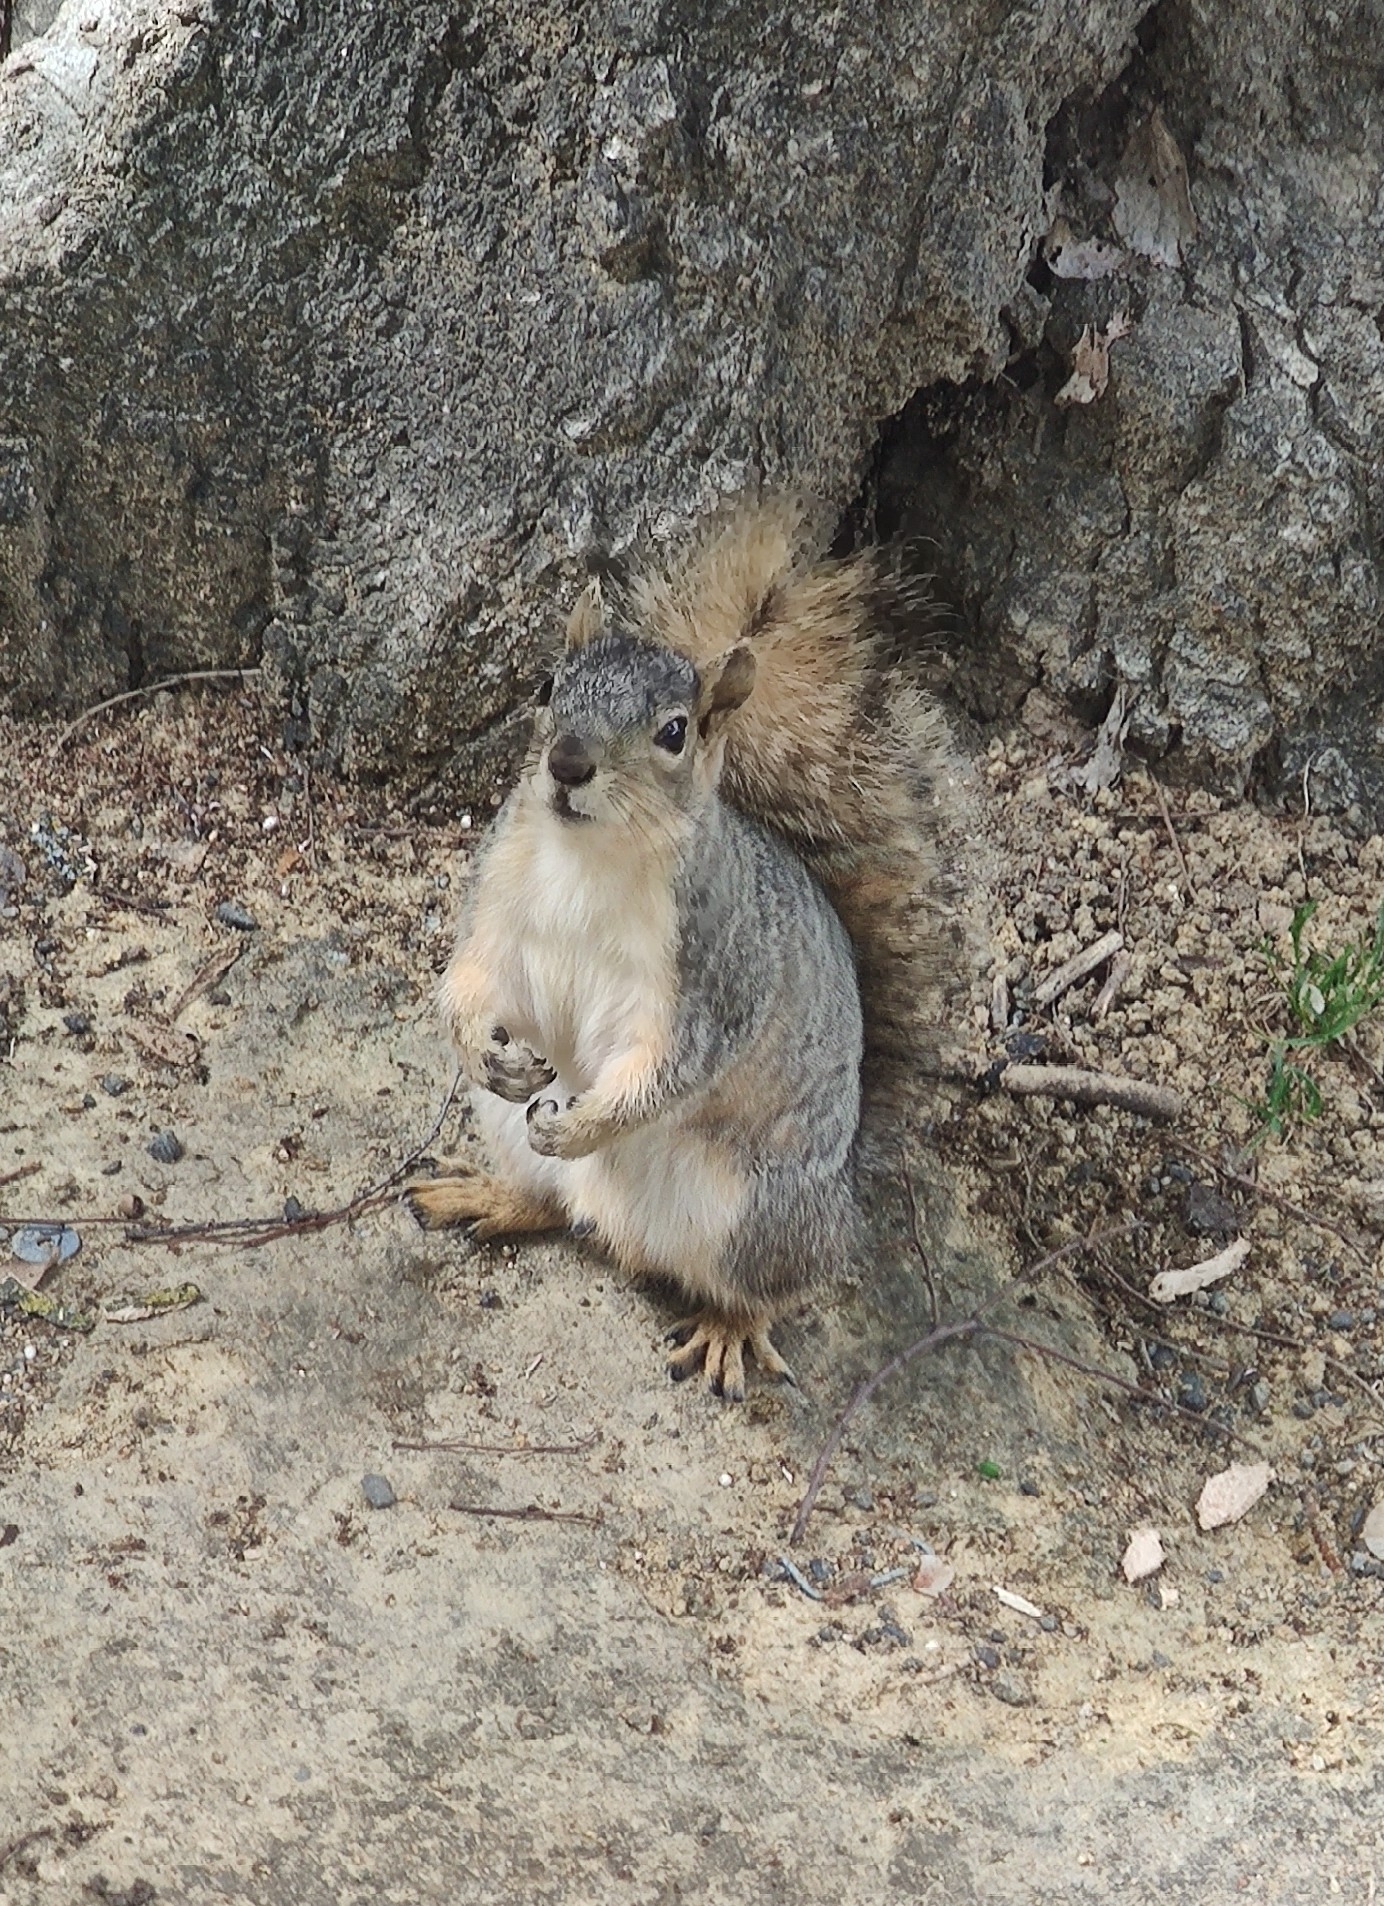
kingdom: Animalia
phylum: Chordata
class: Mammalia
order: Rodentia
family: Sciuridae
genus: Sciurus
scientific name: Sciurus niger
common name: Fox squirrel
